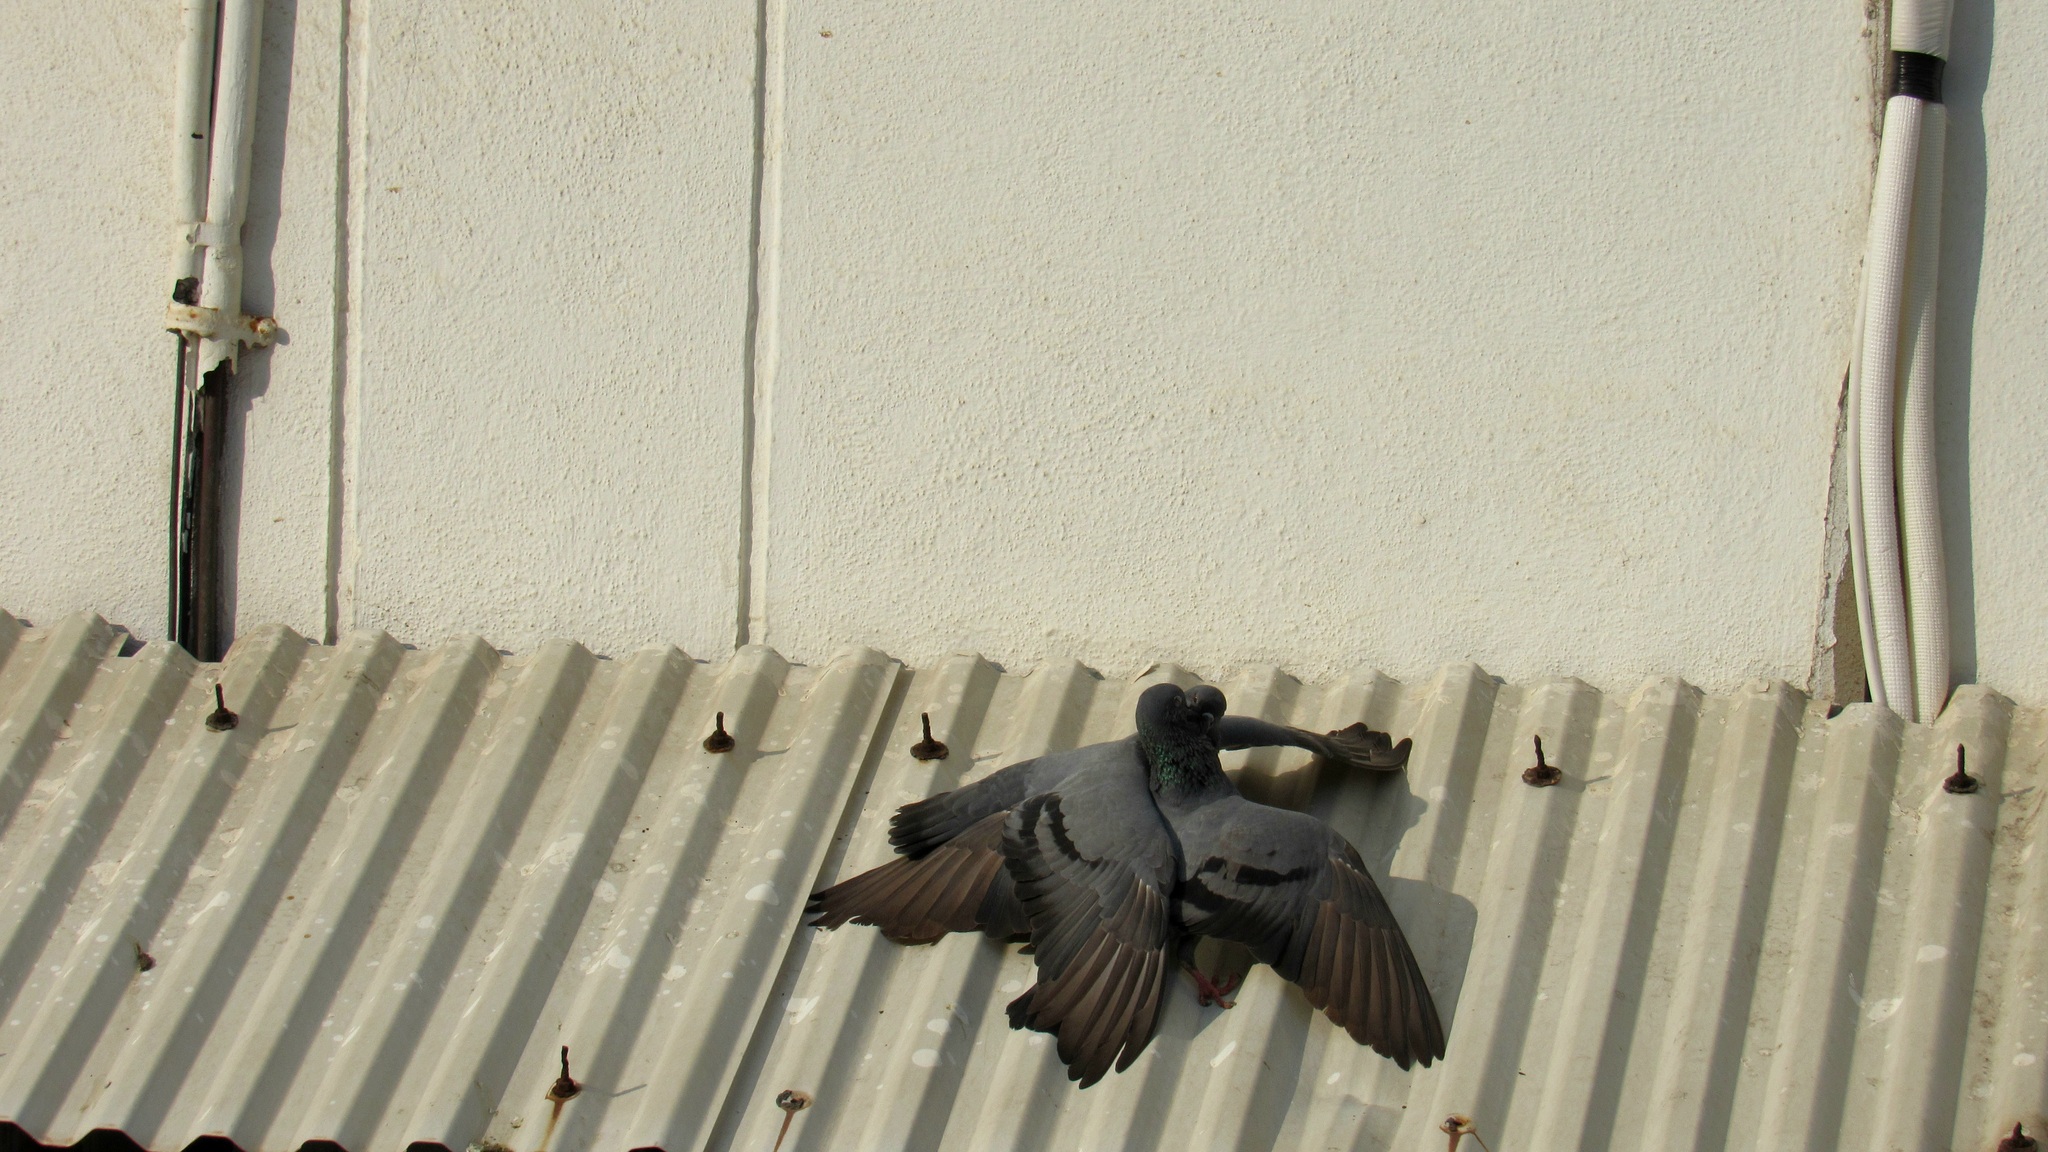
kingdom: Animalia
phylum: Chordata
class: Aves
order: Columbiformes
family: Columbidae
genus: Columba
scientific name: Columba livia
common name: Rock pigeon
